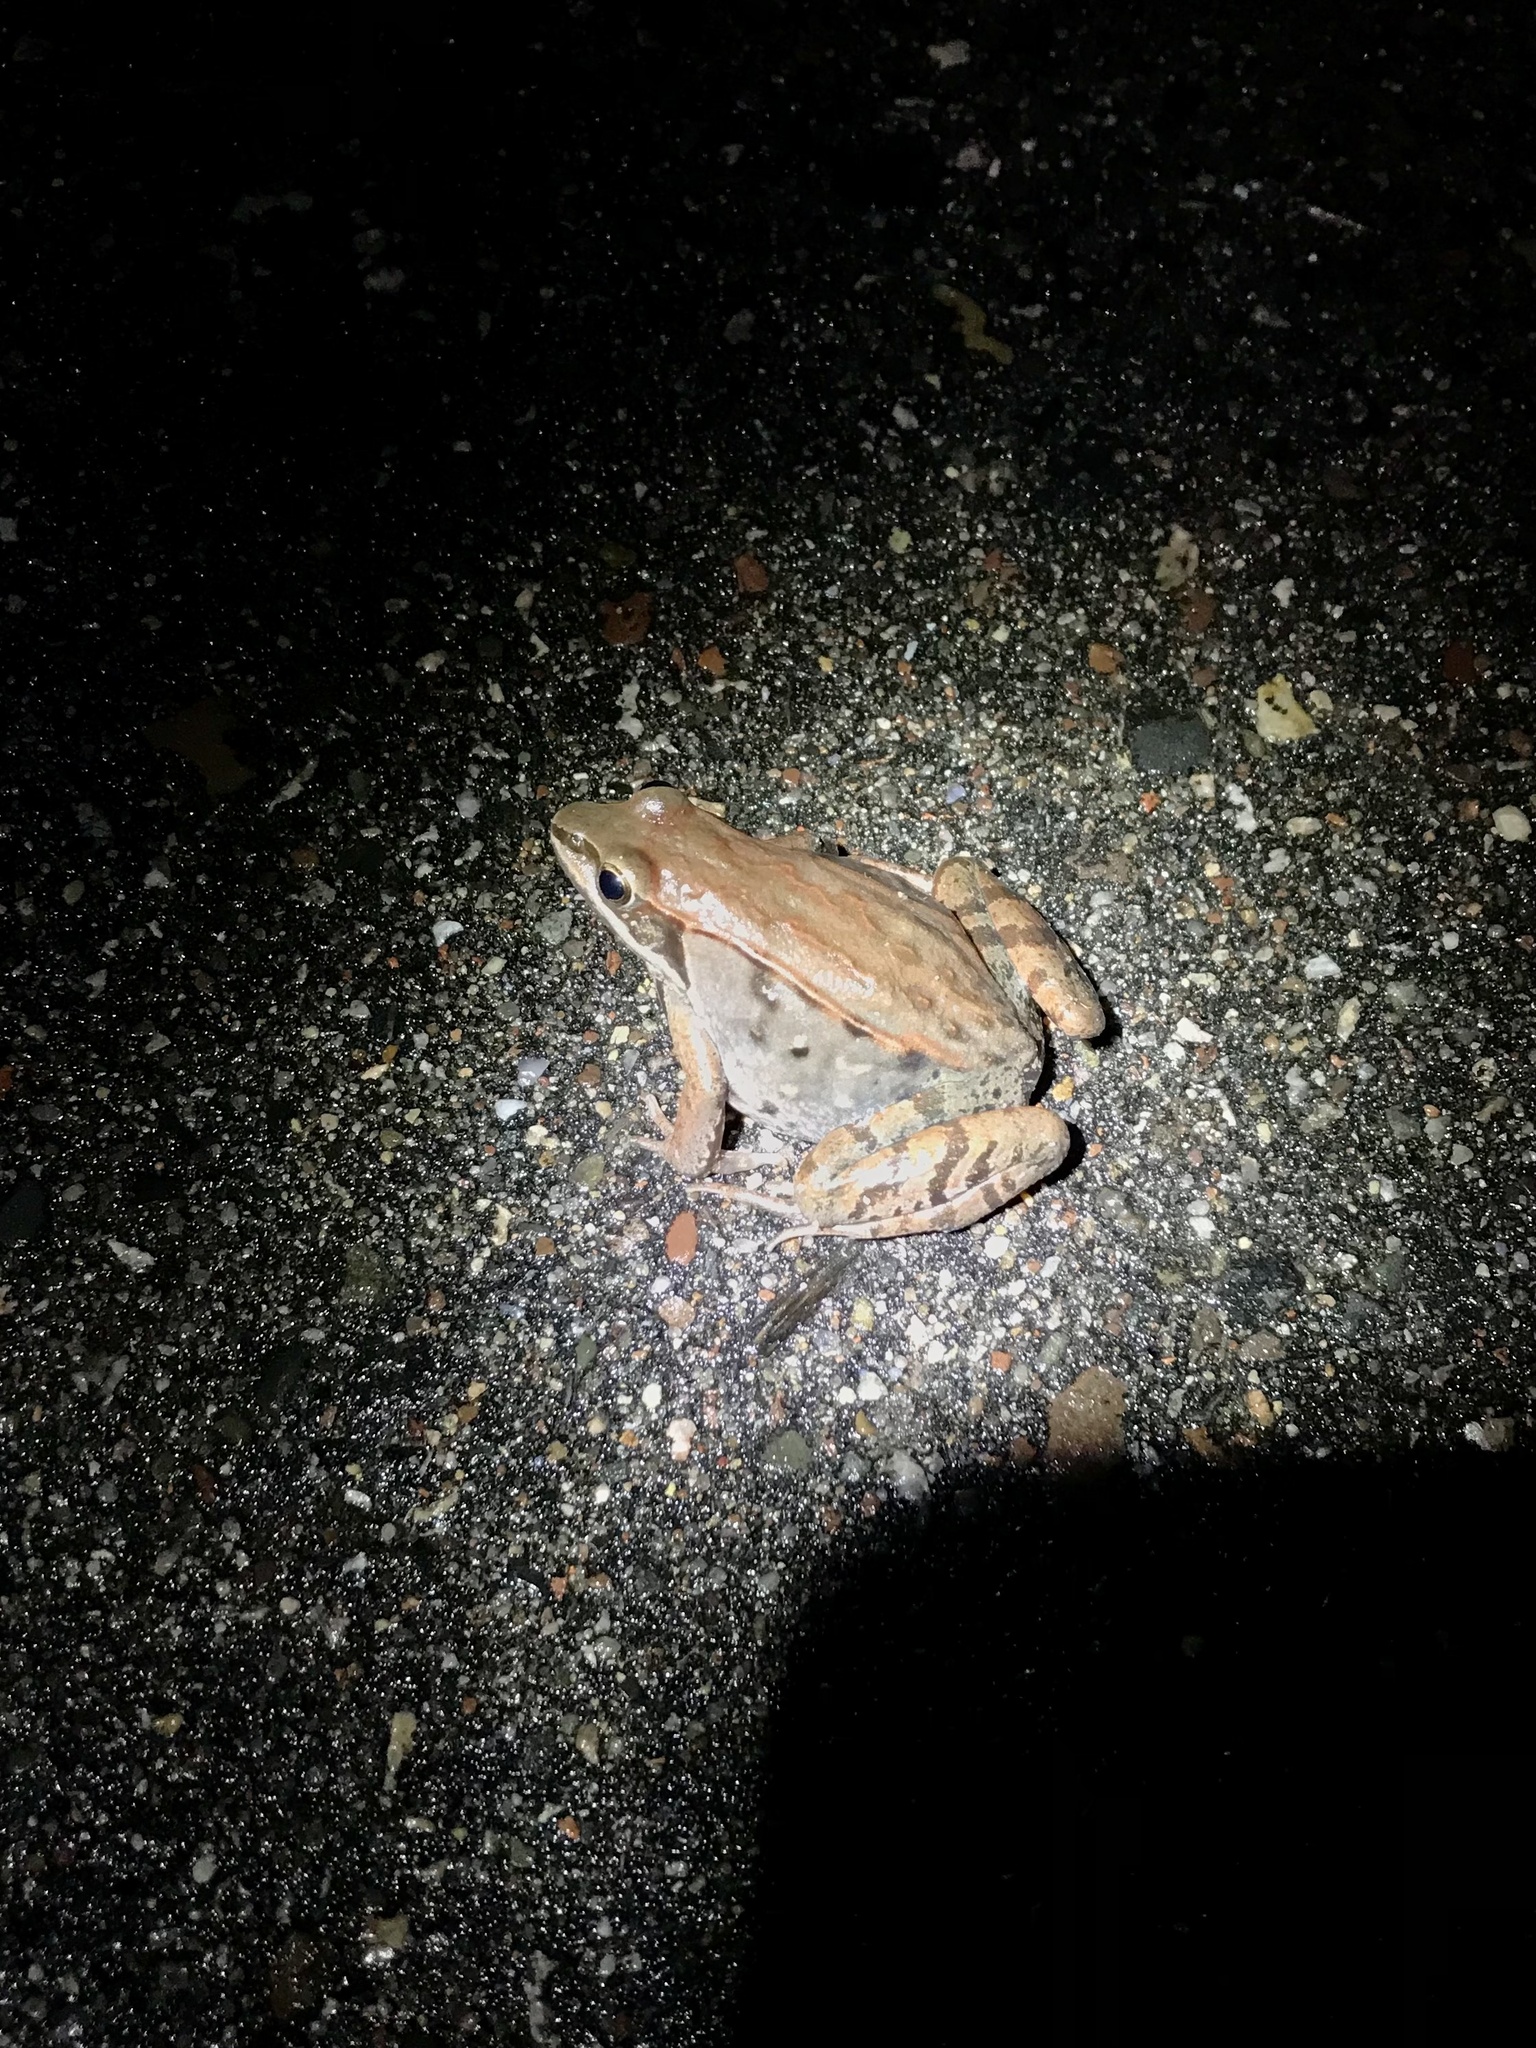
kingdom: Animalia
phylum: Chordata
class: Amphibia
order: Anura
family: Ranidae
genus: Lithobates
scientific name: Lithobates sylvaticus
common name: Wood frog
